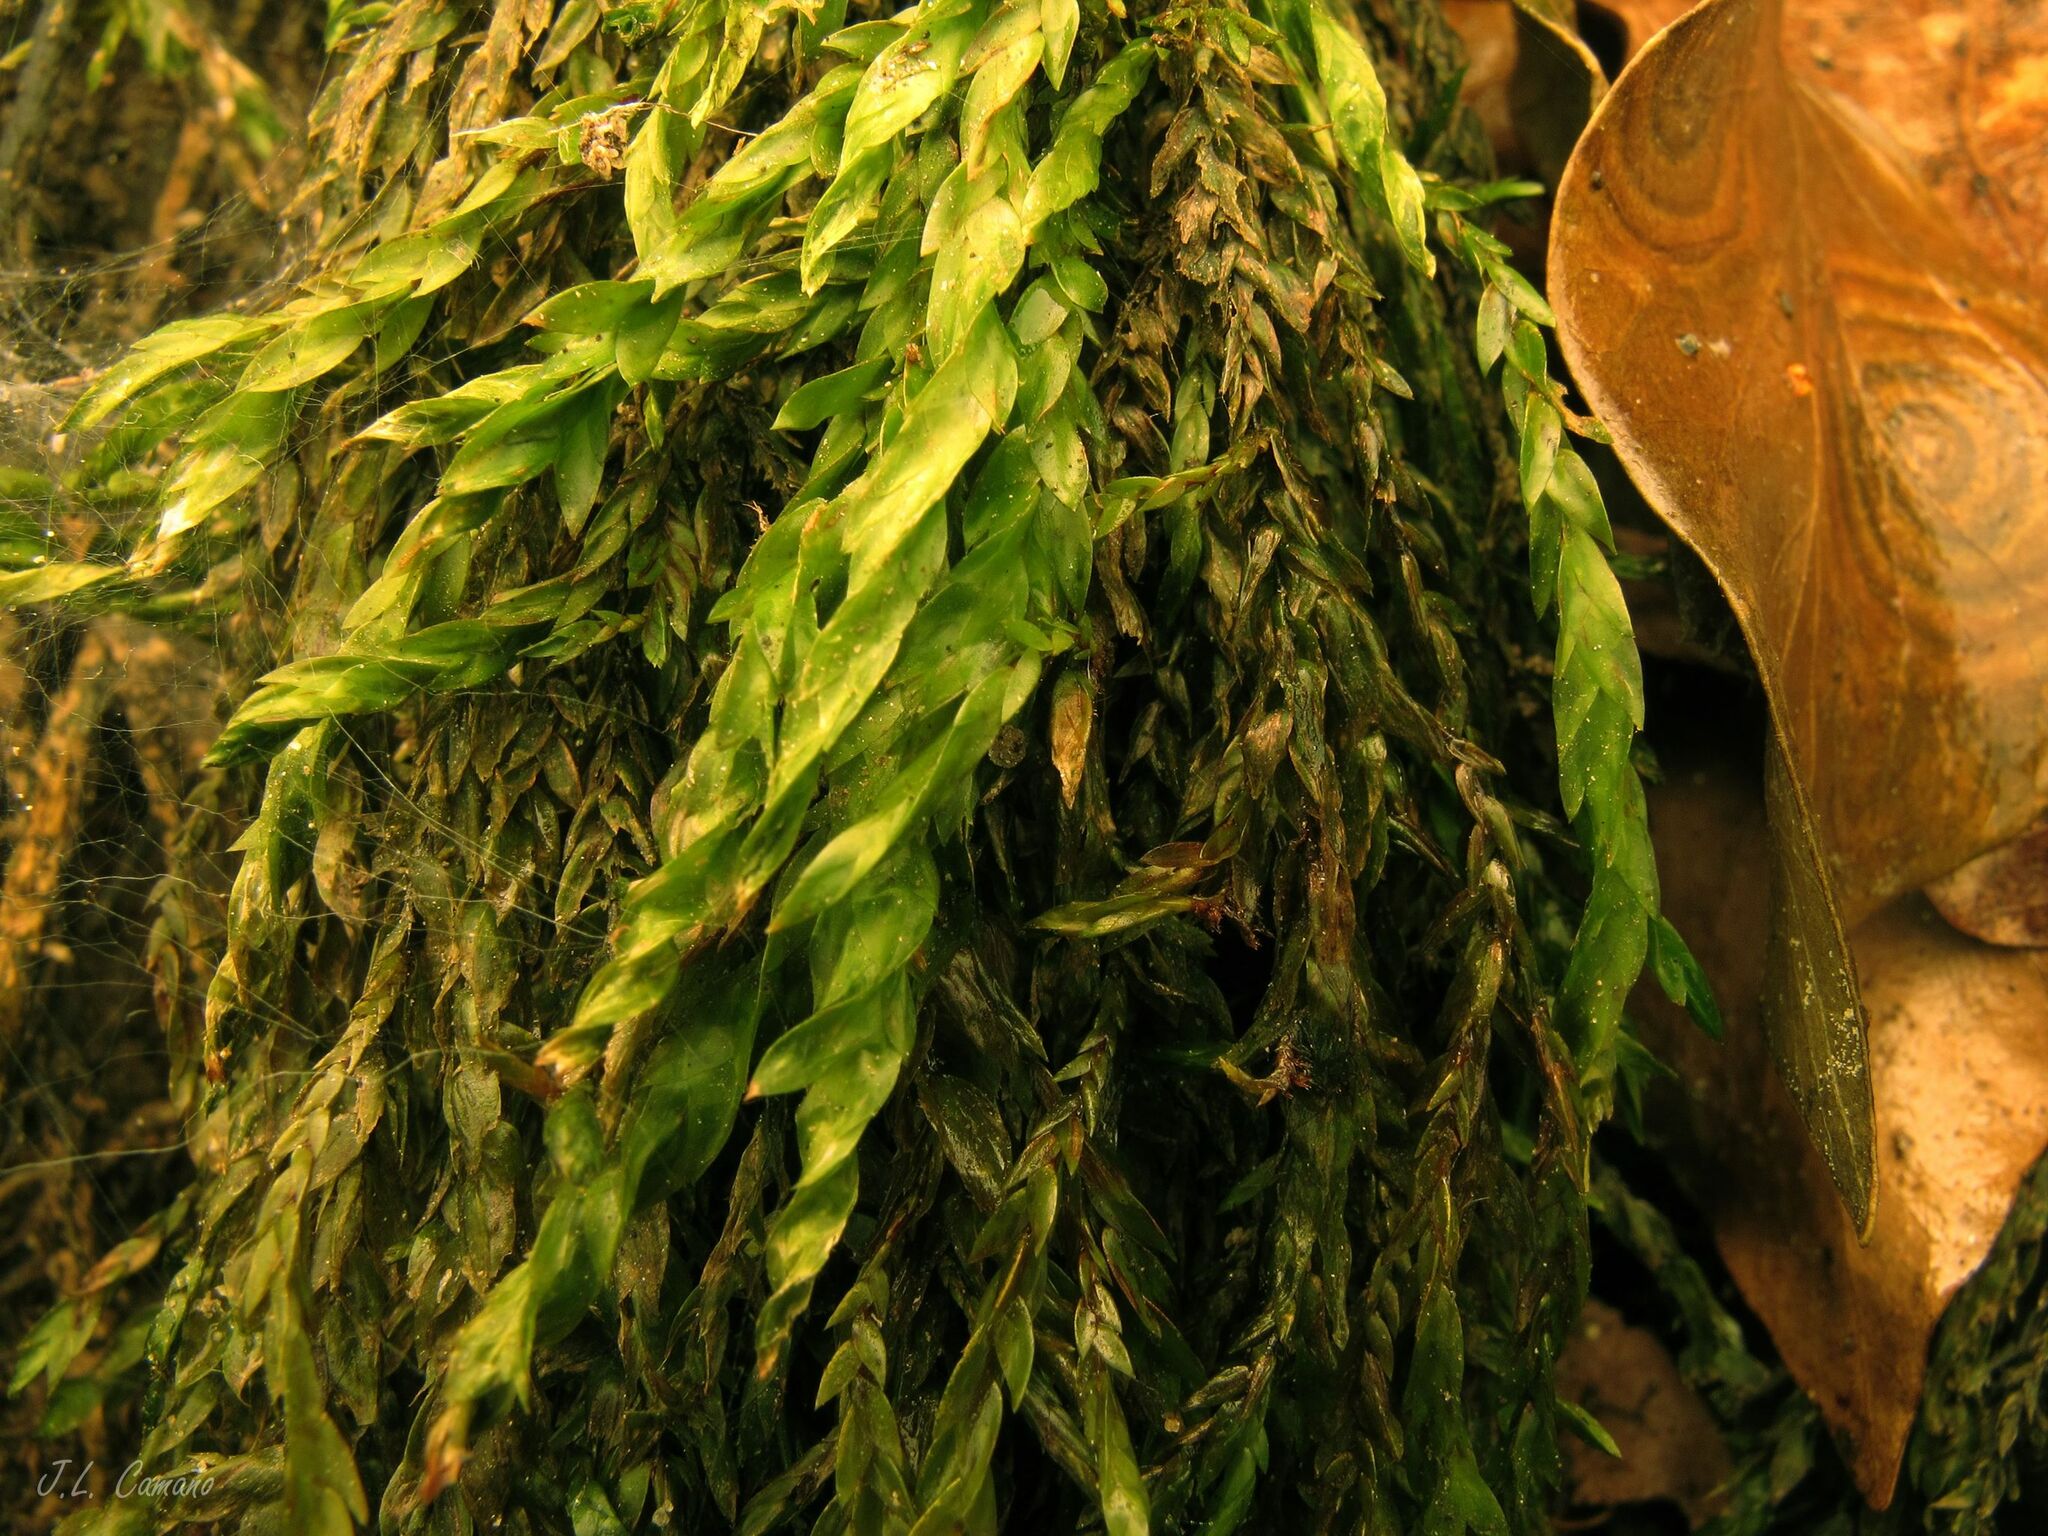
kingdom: Plantae
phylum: Bryophyta
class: Bryopsida
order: Hypnales
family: Fontinalaceae
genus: Fontinalis
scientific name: Fontinalis antipyretica
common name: Greater water-moss
